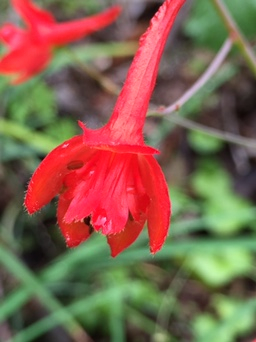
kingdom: Plantae
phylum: Tracheophyta
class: Magnoliopsida
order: Ranunculales
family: Ranunculaceae
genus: Delphinium
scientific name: Delphinium nudicaule
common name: Red larkspur
